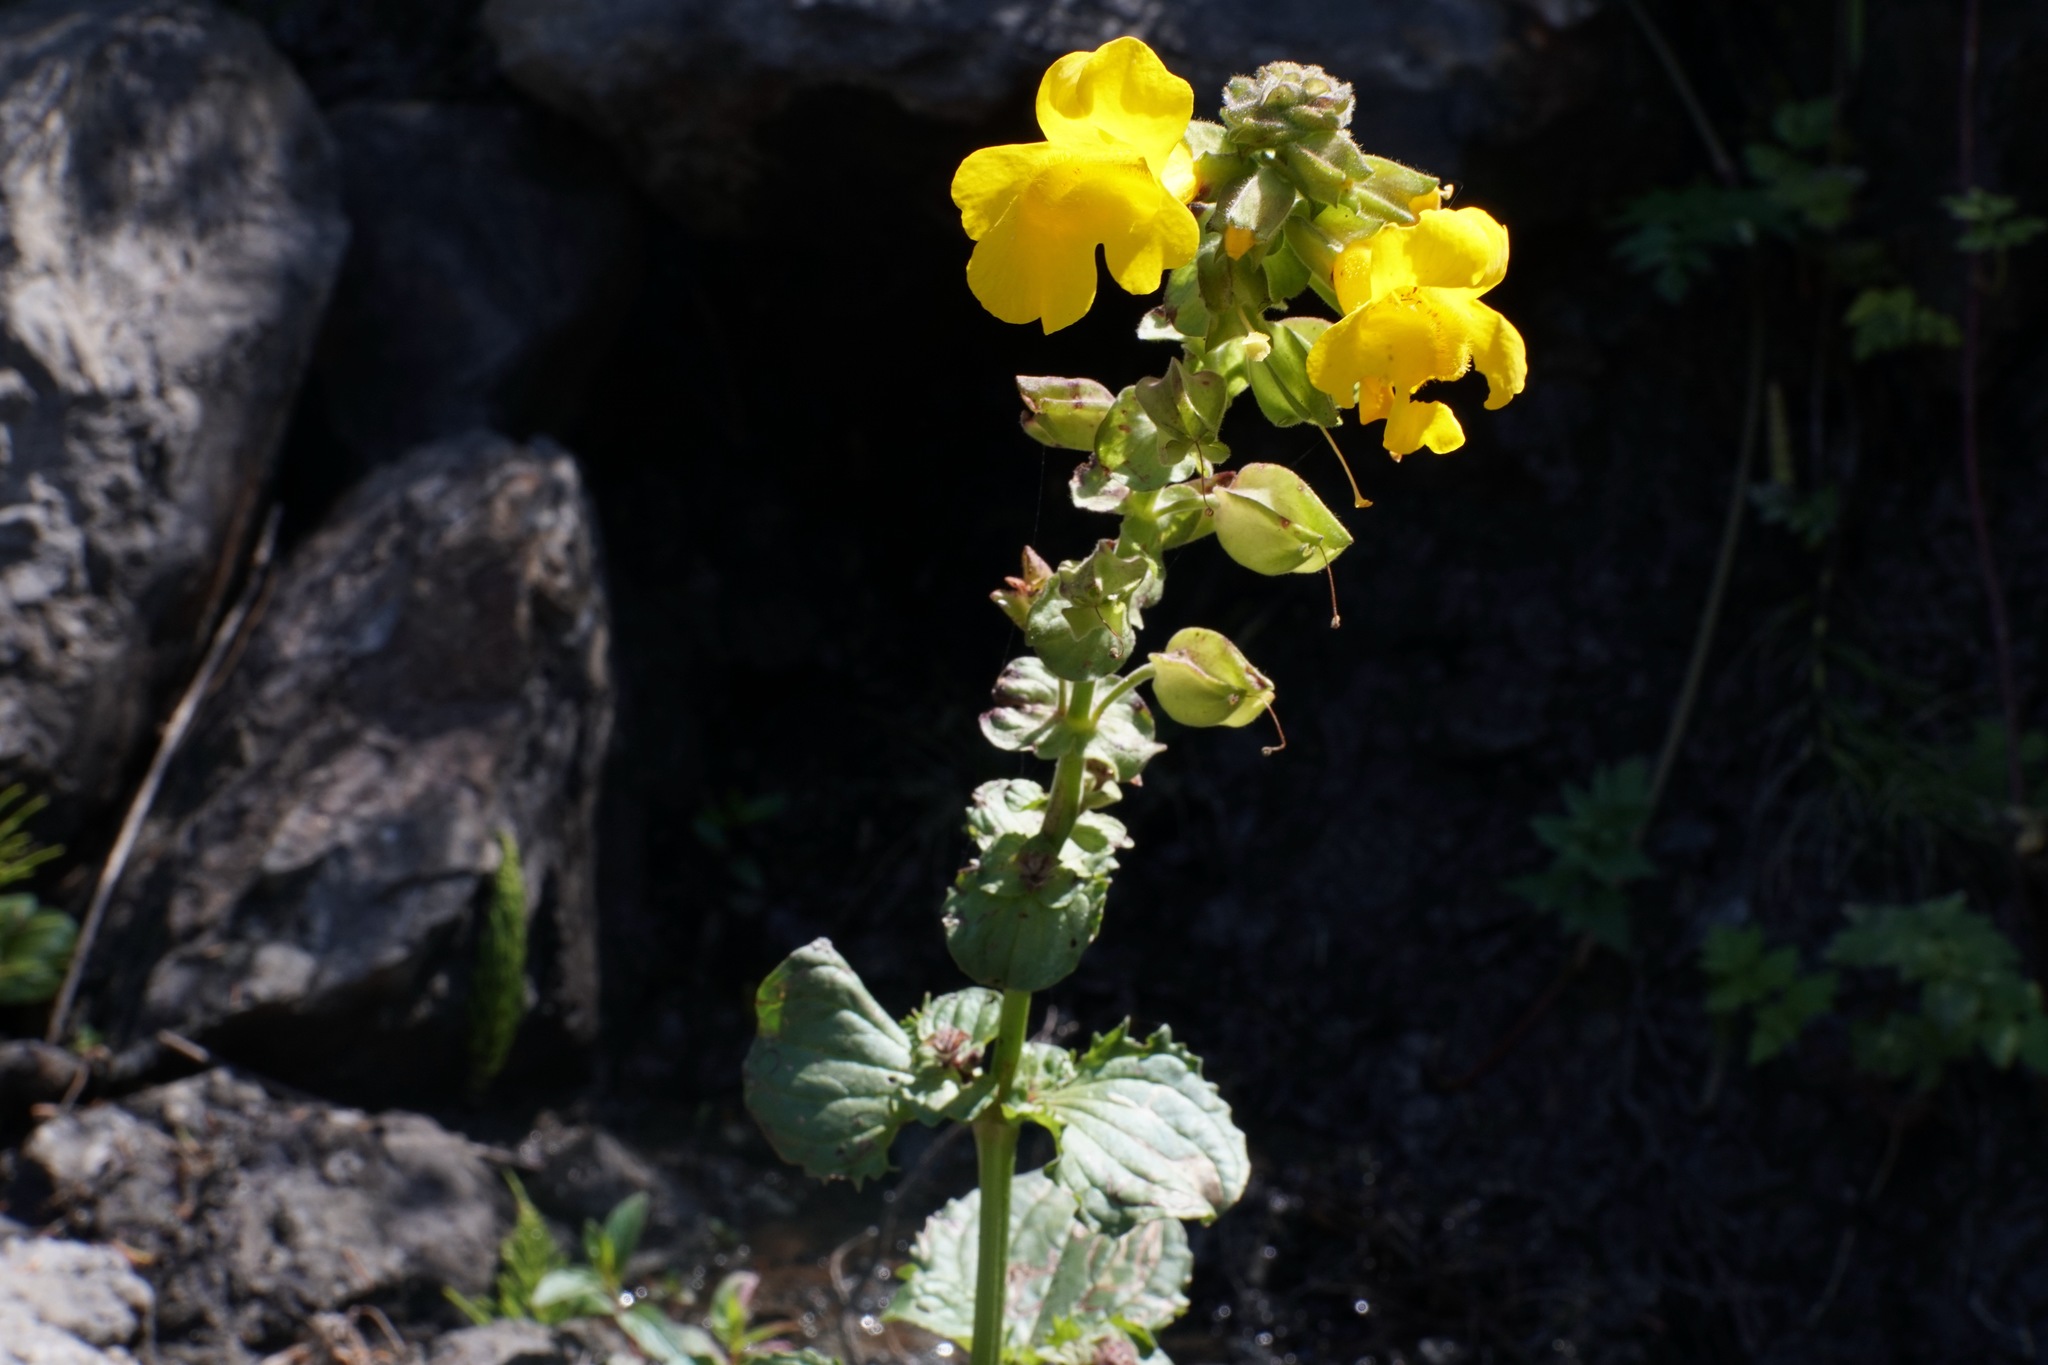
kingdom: Plantae
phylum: Tracheophyta
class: Magnoliopsida
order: Lamiales
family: Phrymaceae
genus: Erythranthe
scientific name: Erythranthe grandis
